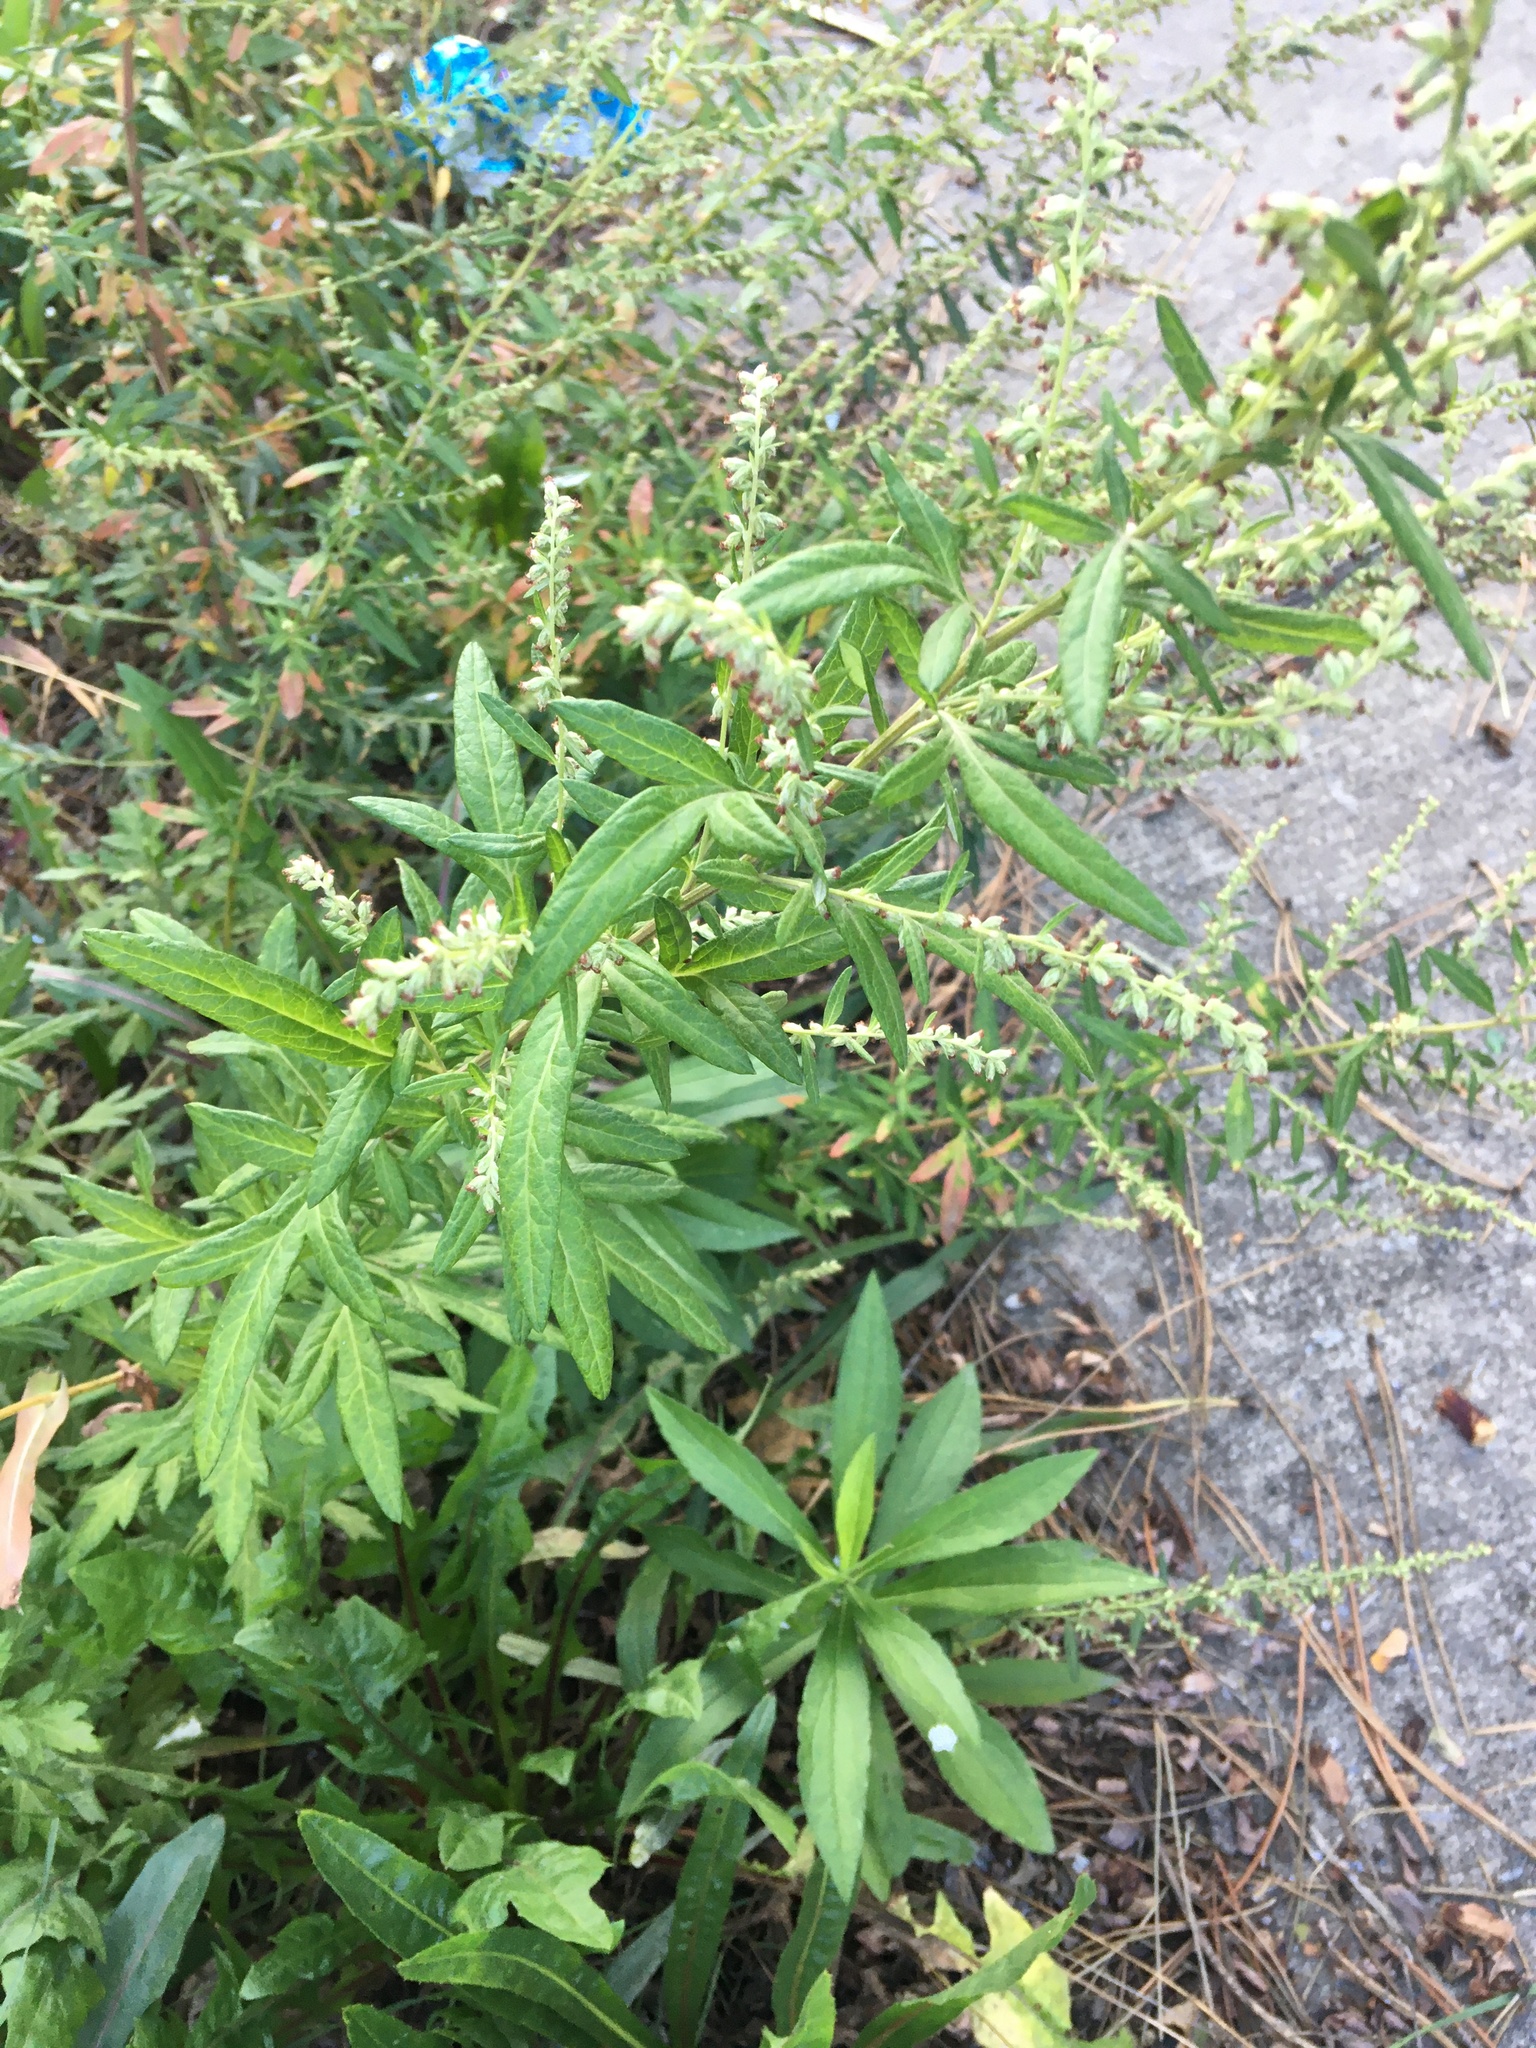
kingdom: Plantae
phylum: Tracheophyta
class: Magnoliopsida
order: Asterales
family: Asteraceae
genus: Artemisia
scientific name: Artemisia vulgaris
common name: Mugwort
